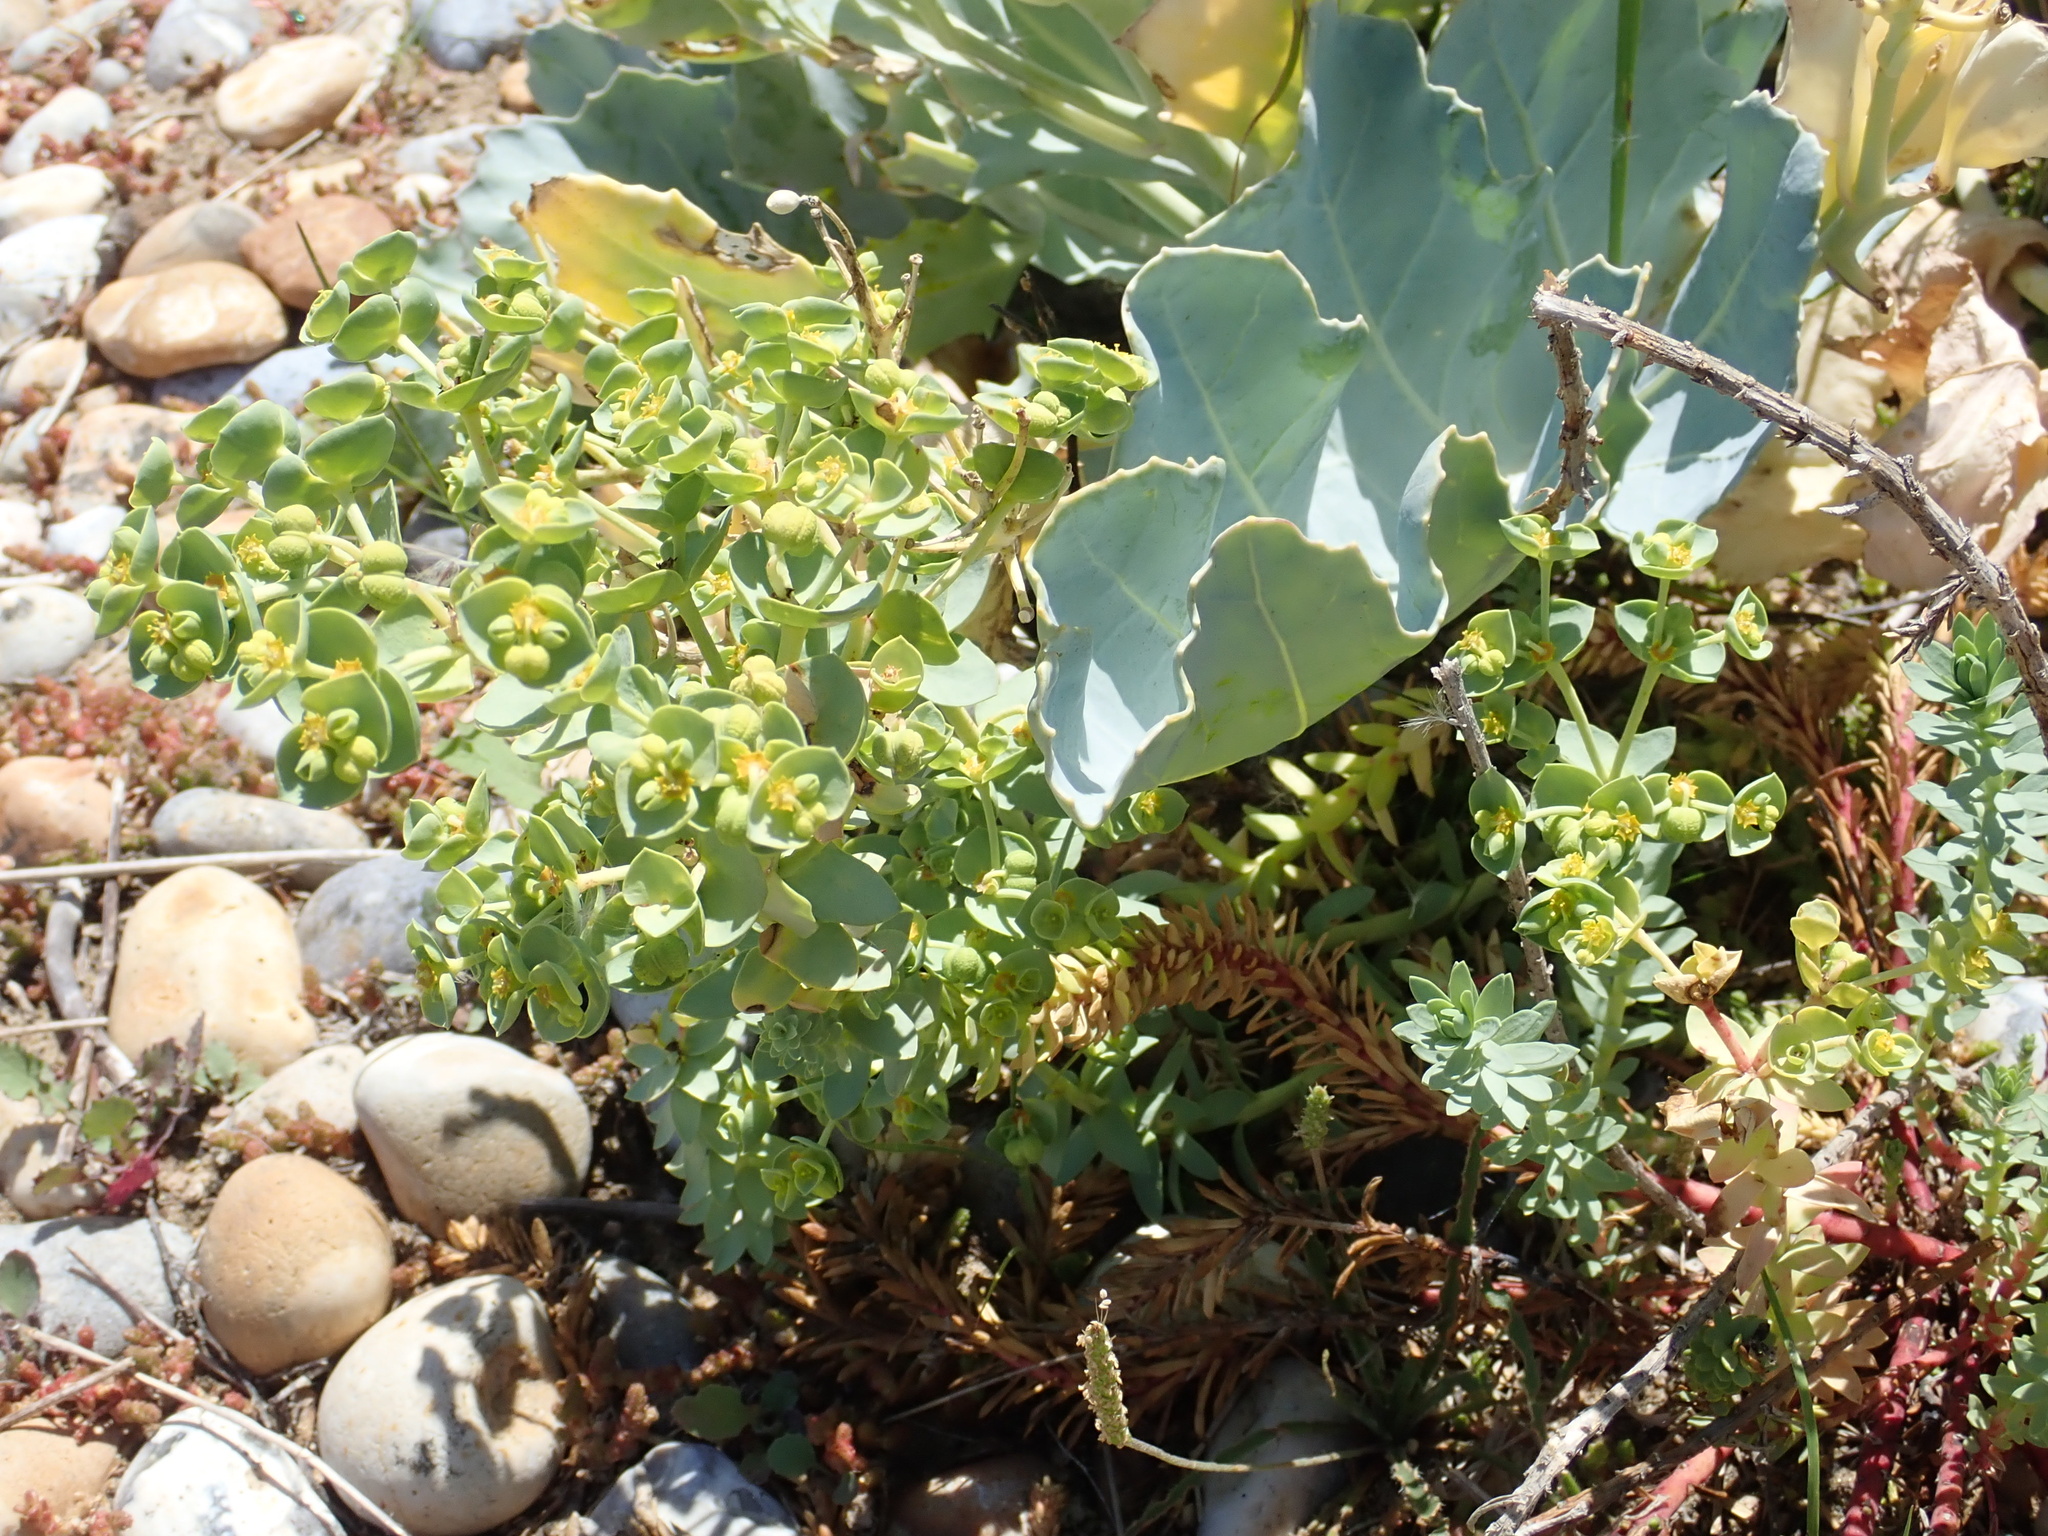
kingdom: Plantae
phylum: Tracheophyta
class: Magnoliopsida
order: Malpighiales
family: Euphorbiaceae
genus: Euphorbia
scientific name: Euphorbia paralias
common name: Sea spurge
